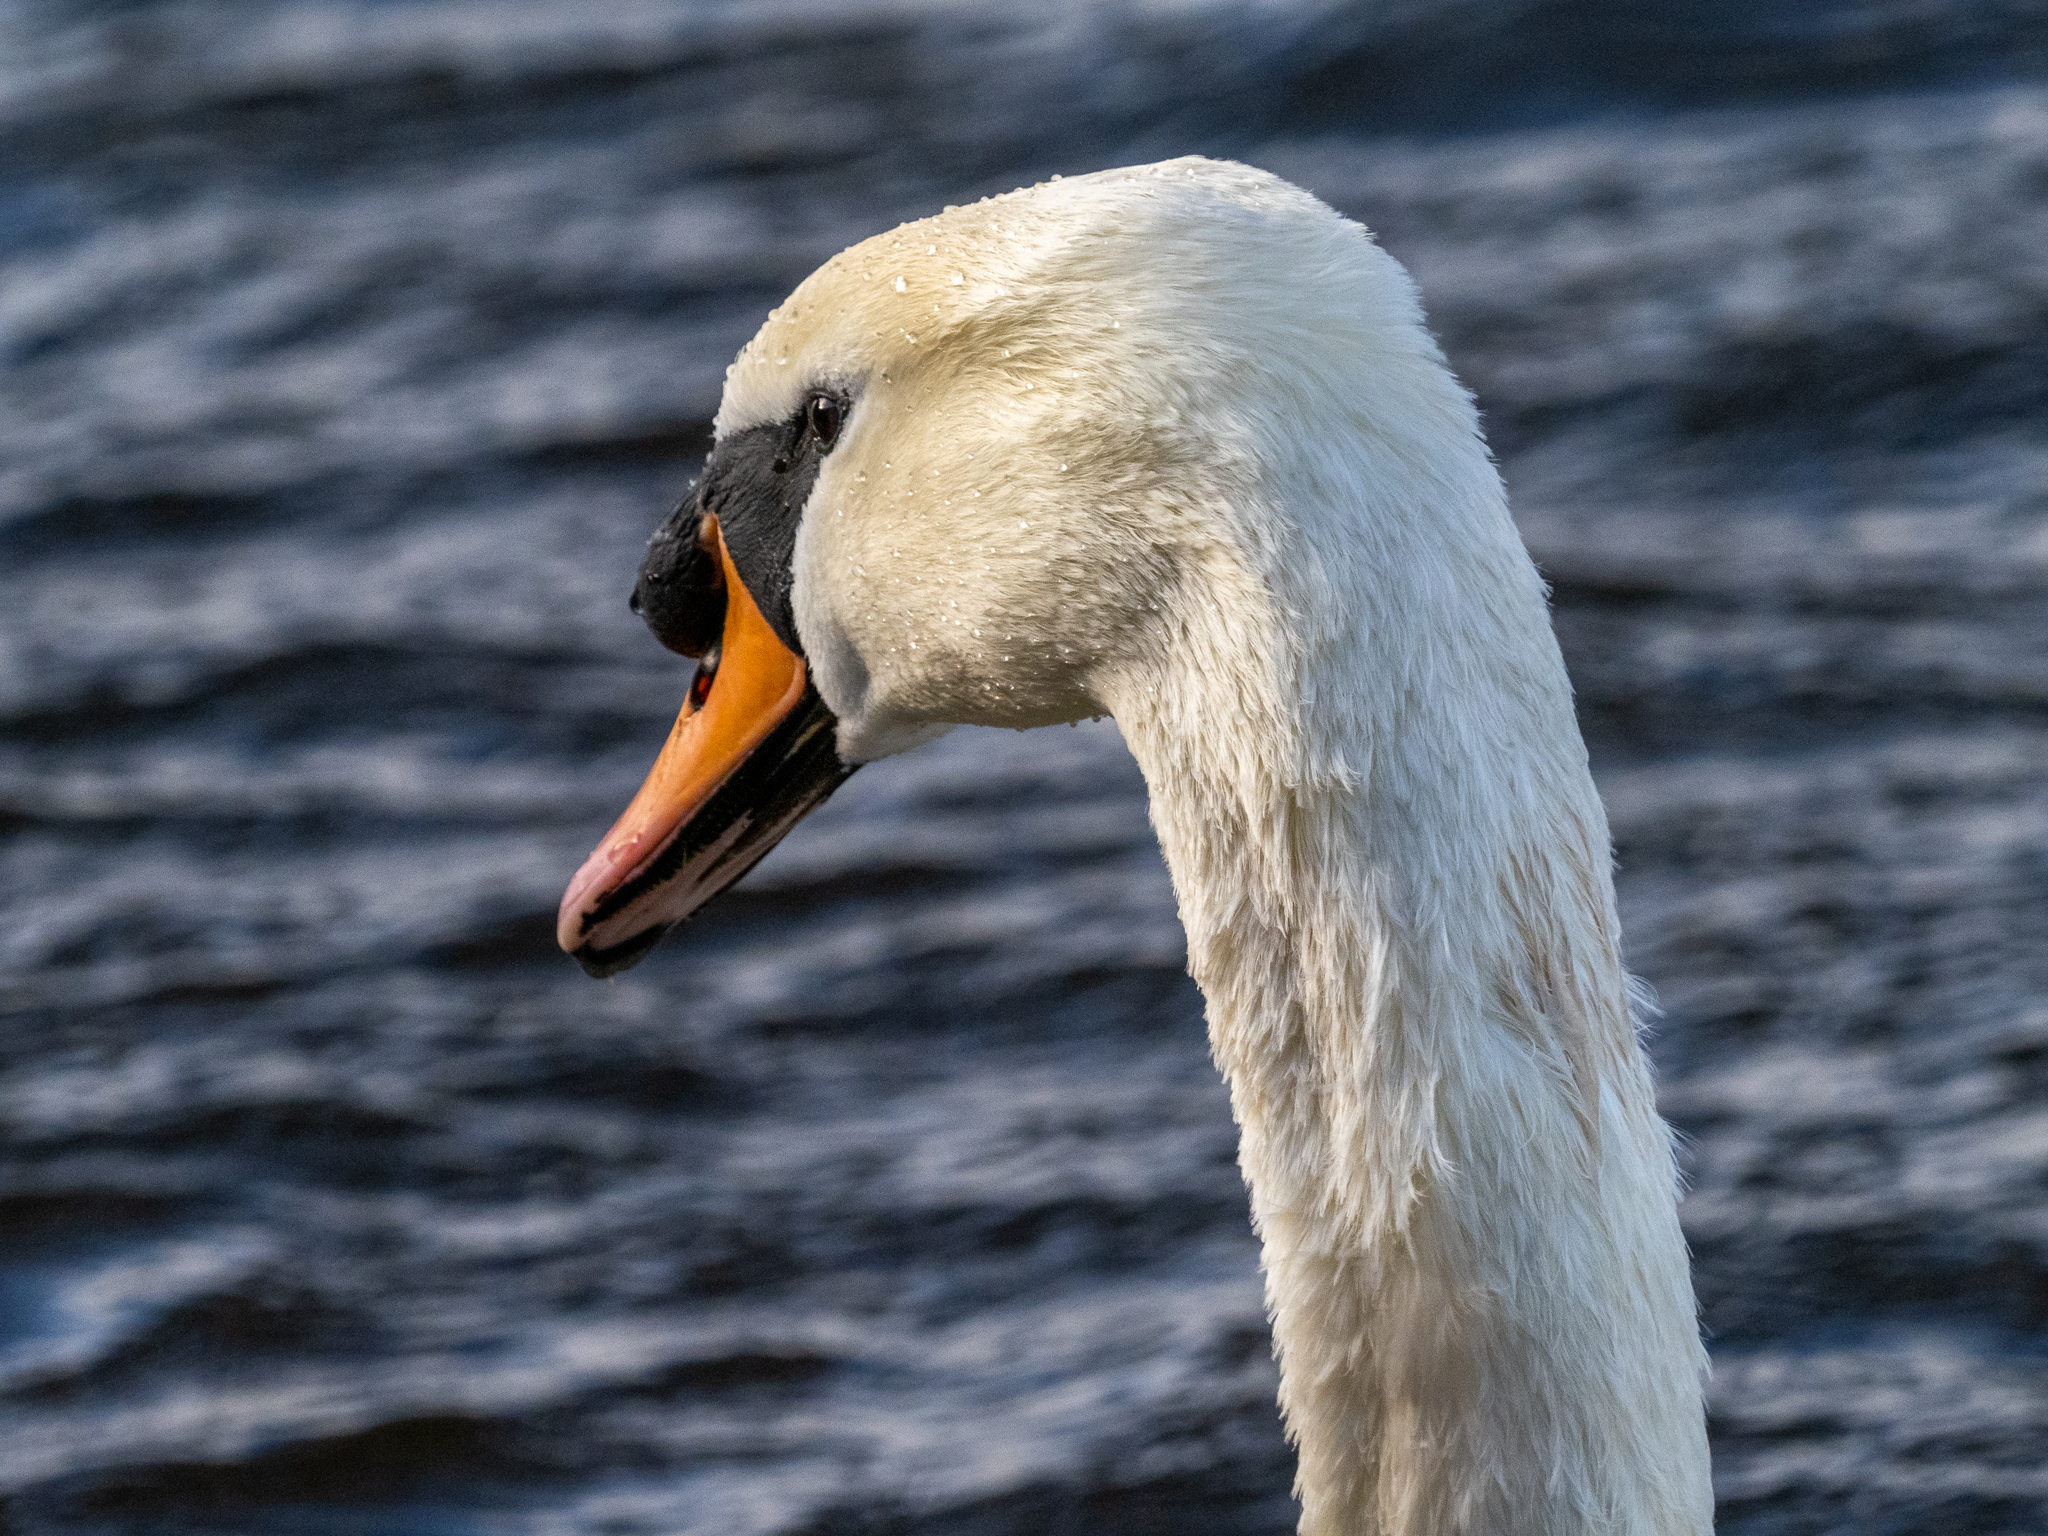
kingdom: Animalia
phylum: Chordata
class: Aves
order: Anseriformes
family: Anatidae
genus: Cygnus
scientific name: Cygnus olor
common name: Mute swan
